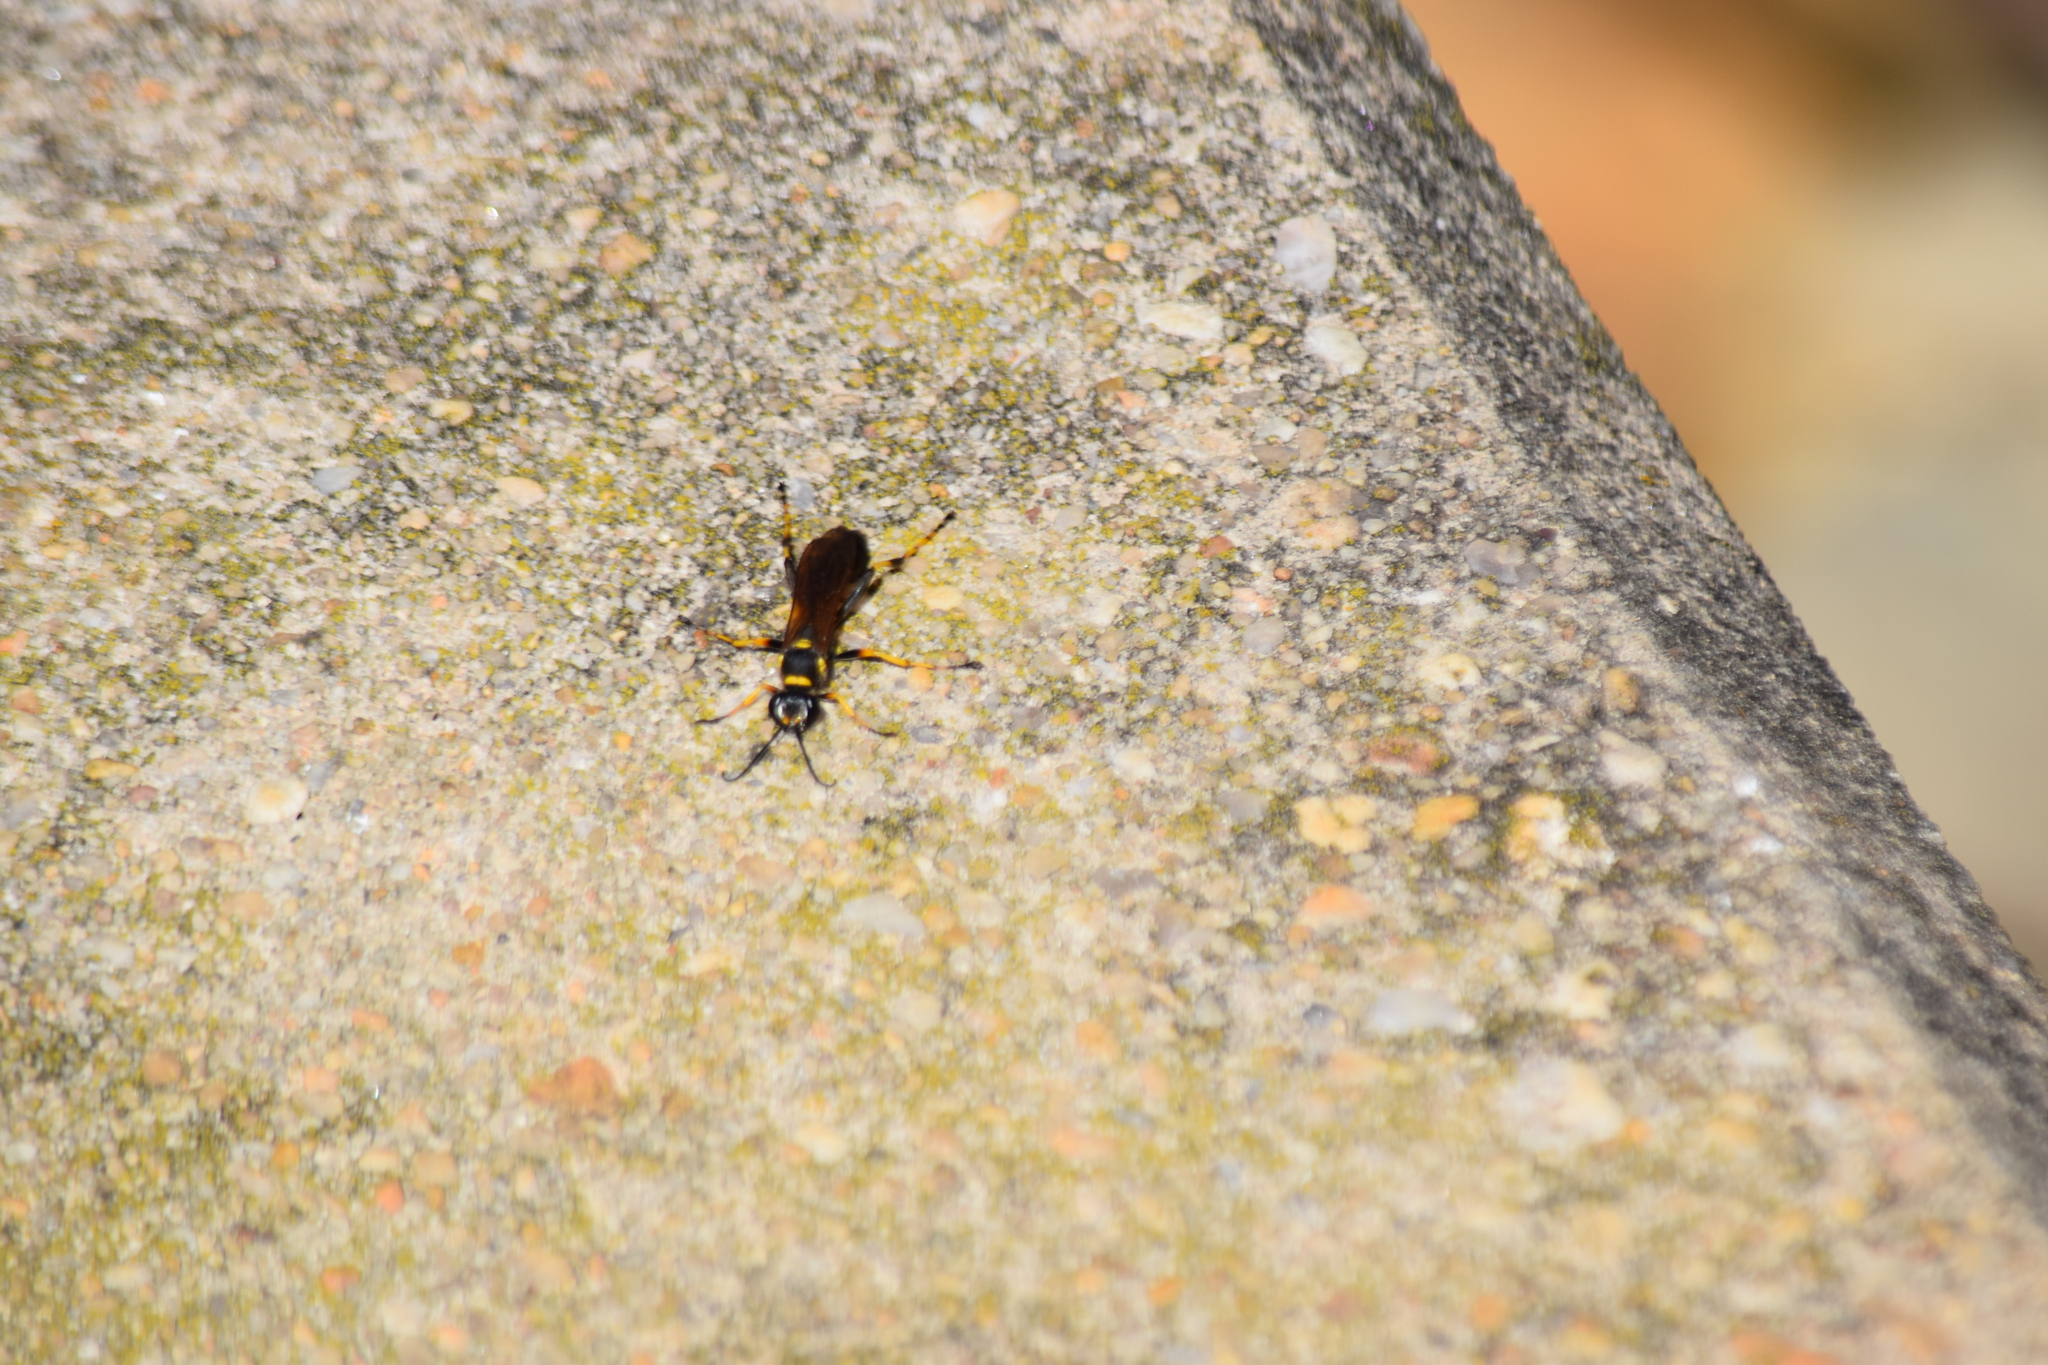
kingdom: Animalia
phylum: Arthropoda
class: Insecta
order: Hymenoptera
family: Sphecidae
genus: Sceliphron
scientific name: Sceliphron caementarium
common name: Mud dauber
